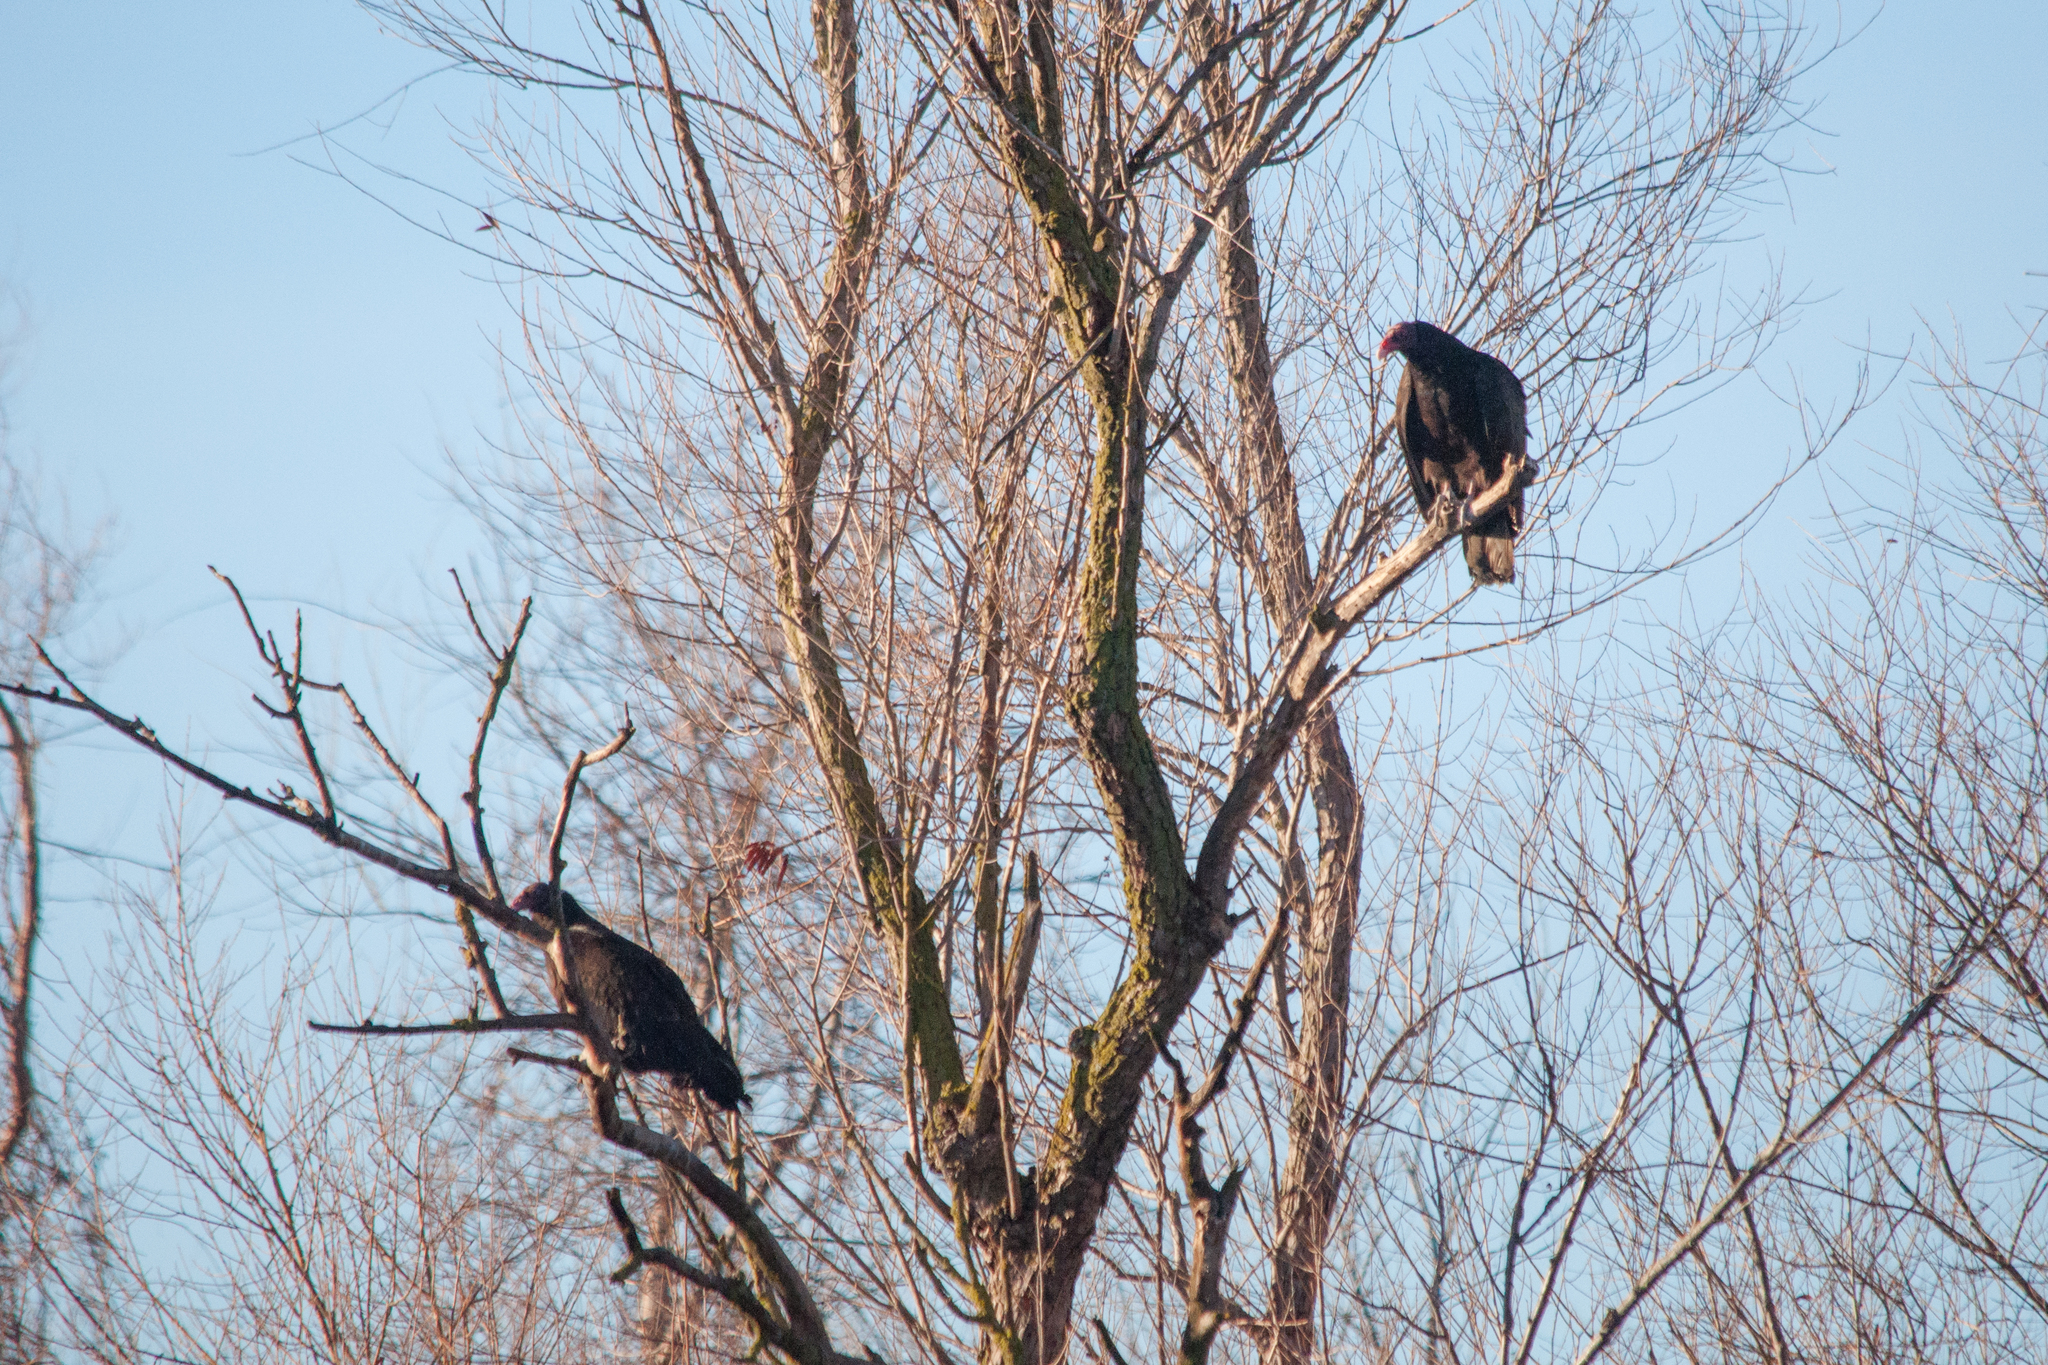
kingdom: Animalia
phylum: Chordata
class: Aves
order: Accipitriformes
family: Cathartidae
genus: Cathartes
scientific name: Cathartes aura
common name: Turkey vulture
